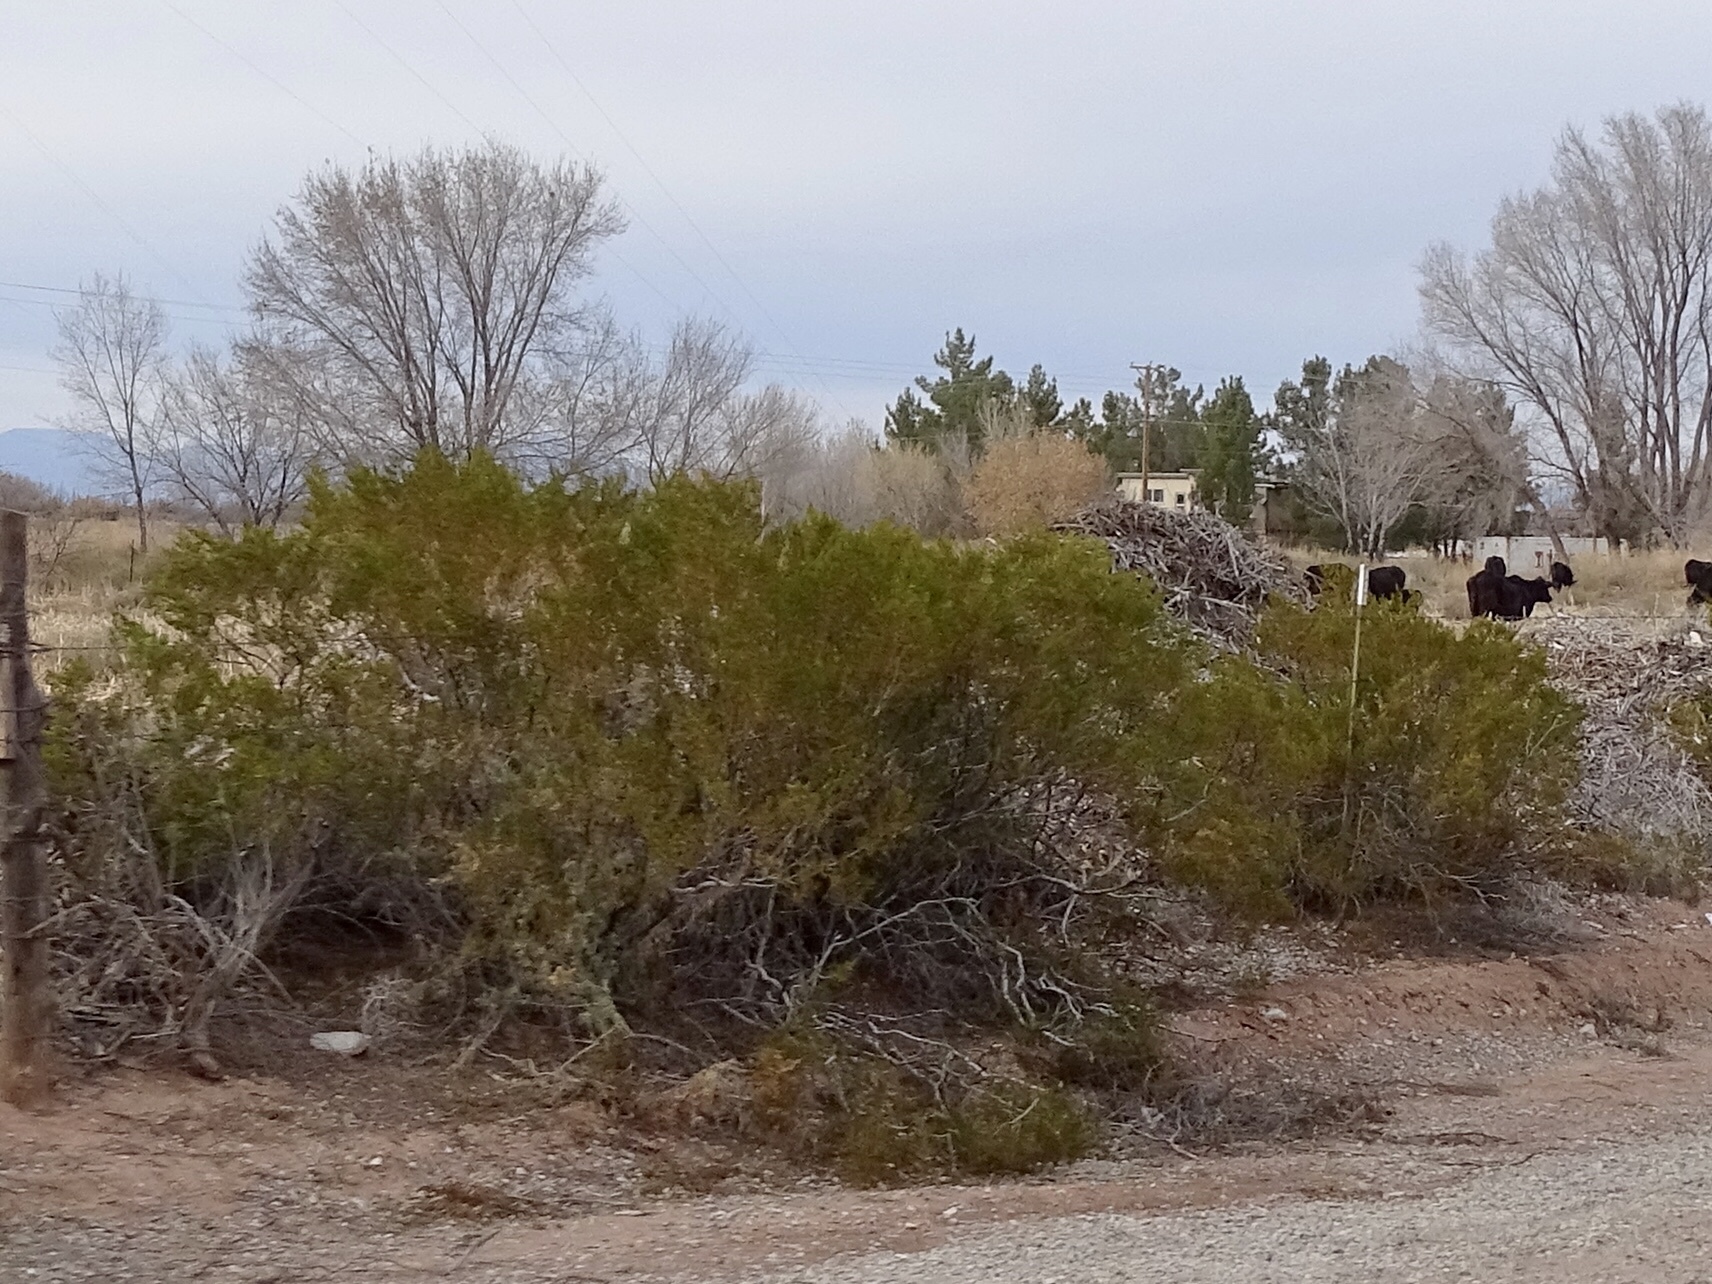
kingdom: Plantae
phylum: Tracheophyta
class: Magnoliopsida
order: Zygophyllales
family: Zygophyllaceae
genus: Larrea
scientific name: Larrea tridentata
